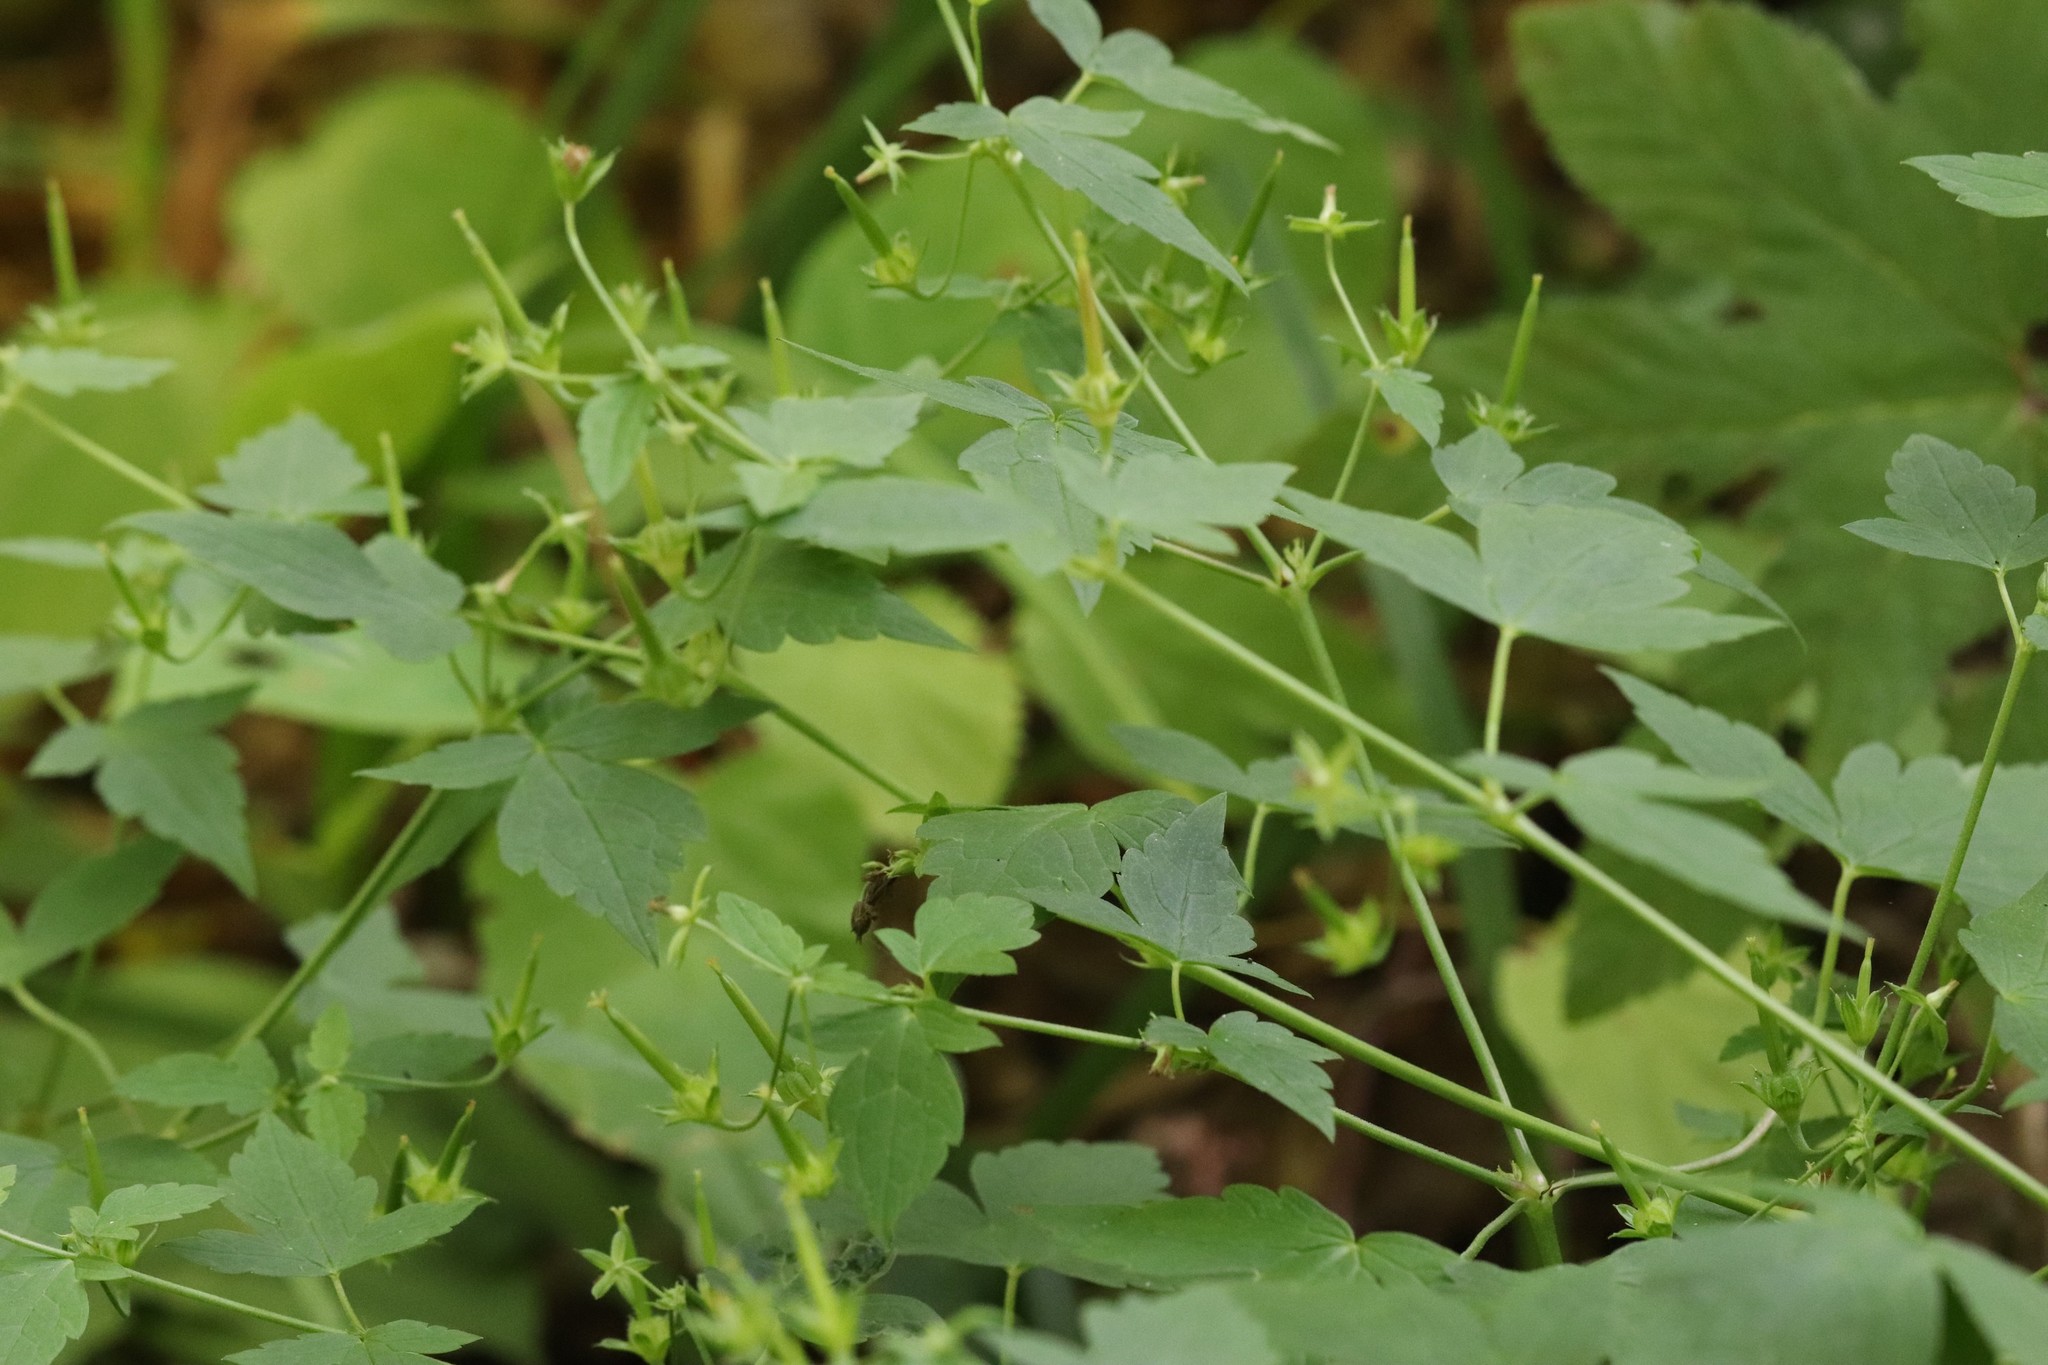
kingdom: Plantae
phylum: Tracheophyta
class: Magnoliopsida
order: Geraniales
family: Geraniaceae
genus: Geranium
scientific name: Geranium wilfordii
